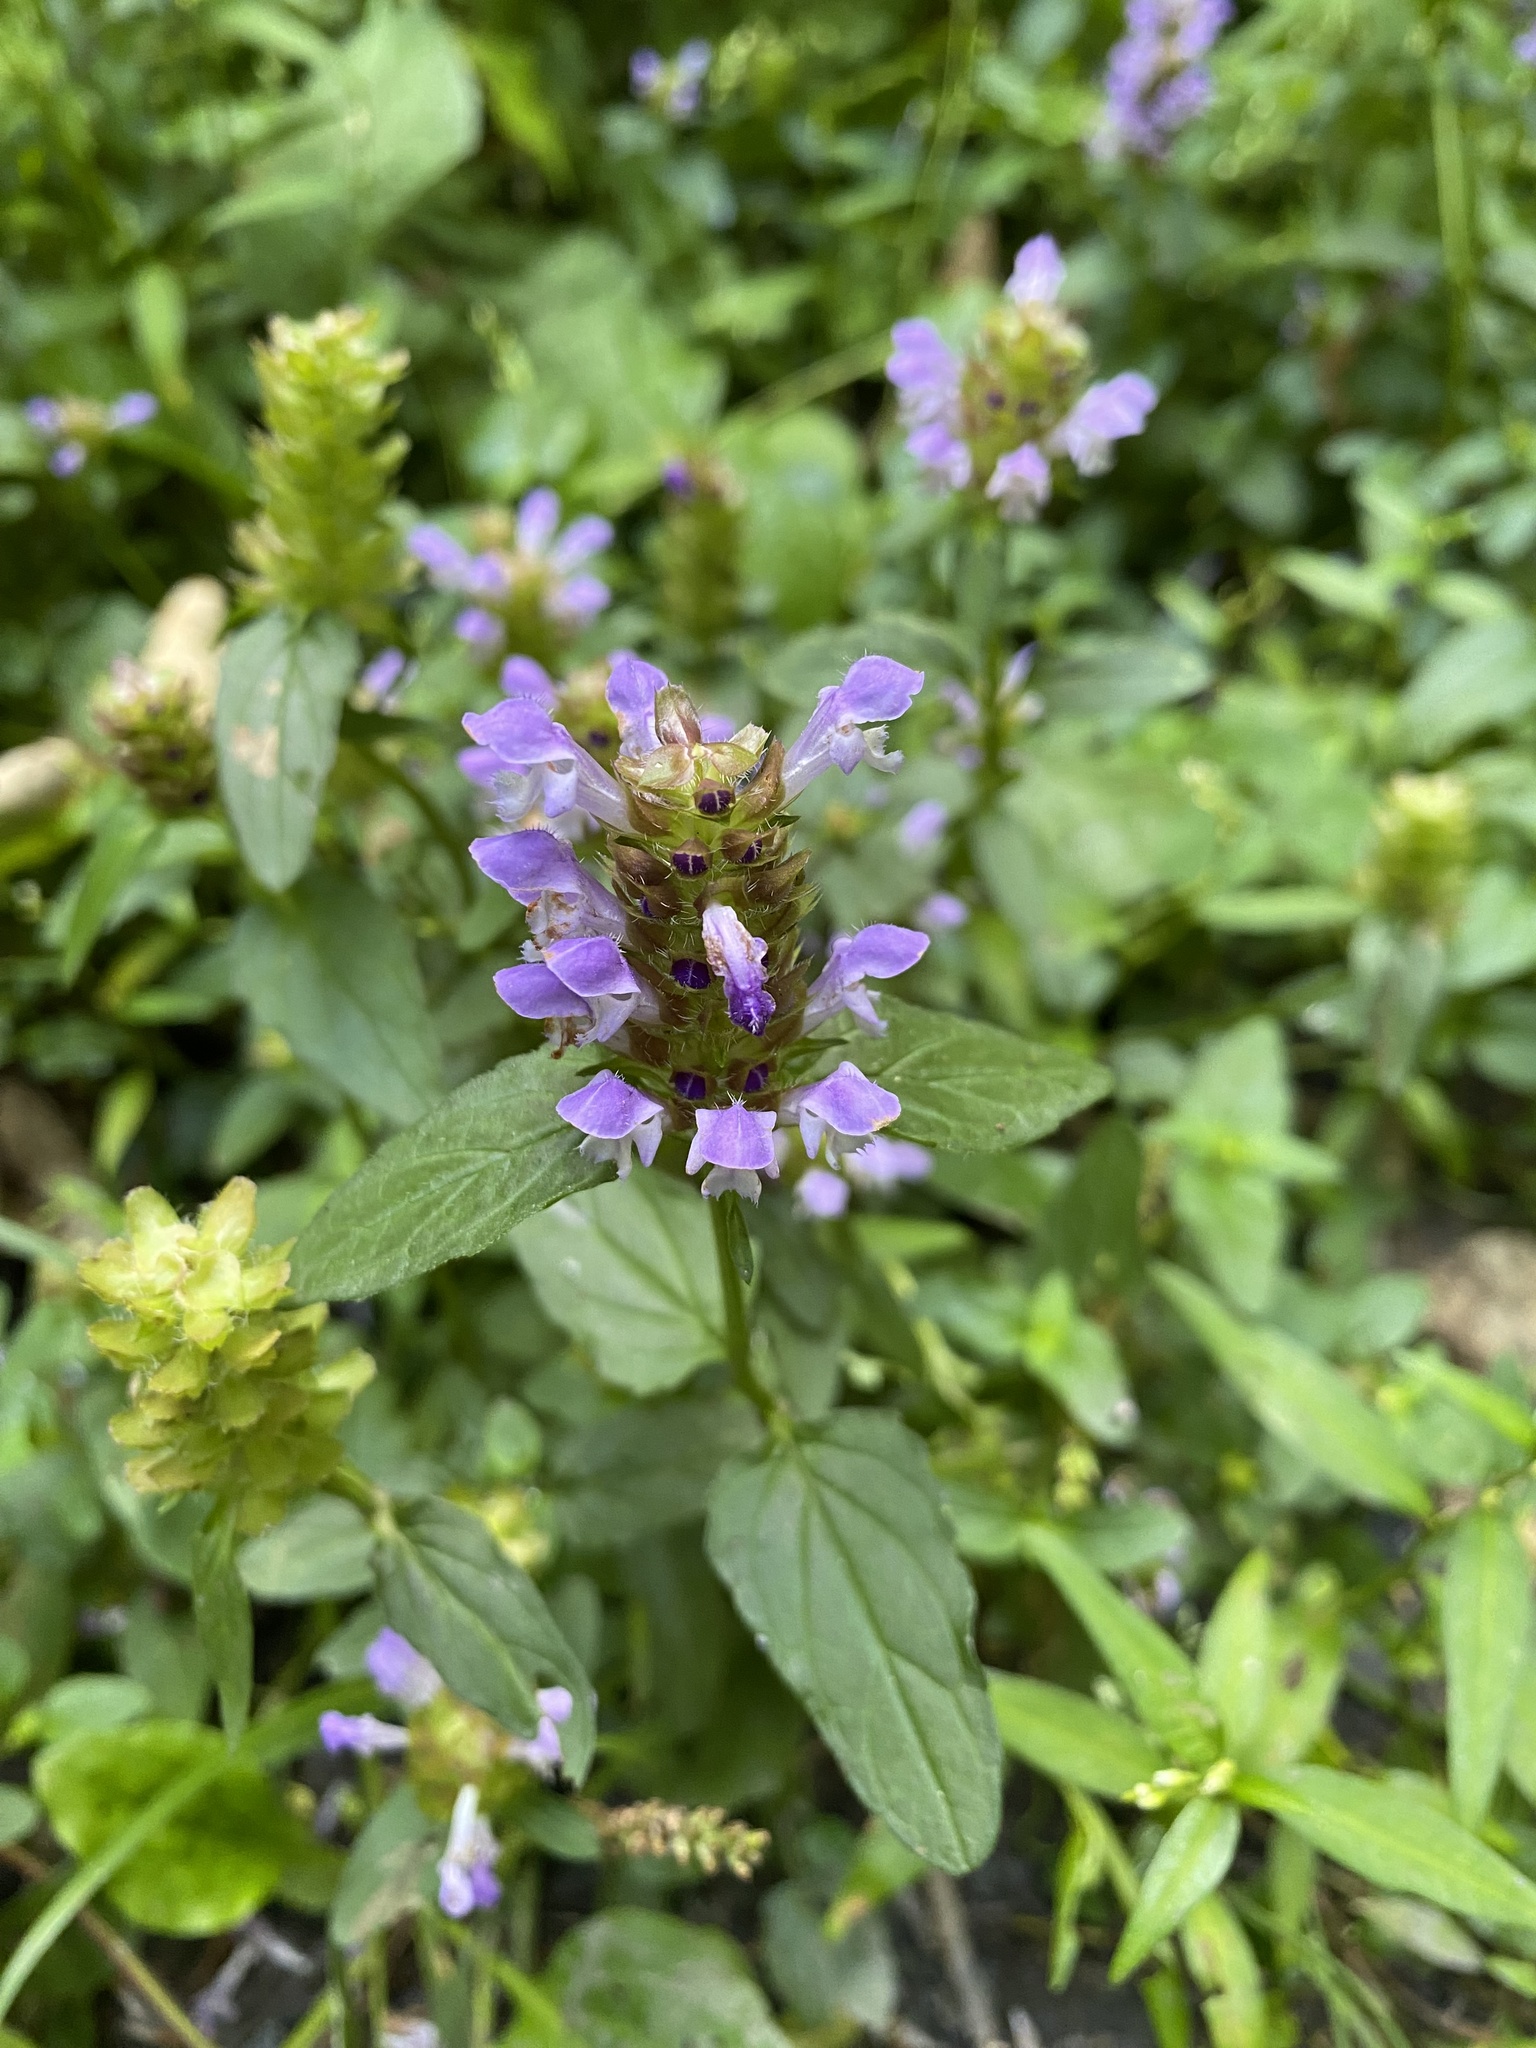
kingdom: Plantae
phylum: Tracheophyta
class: Magnoliopsida
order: Lamiales
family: Lamiaceae
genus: Prunella
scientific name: Prunella vulgaris
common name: Heal-all
